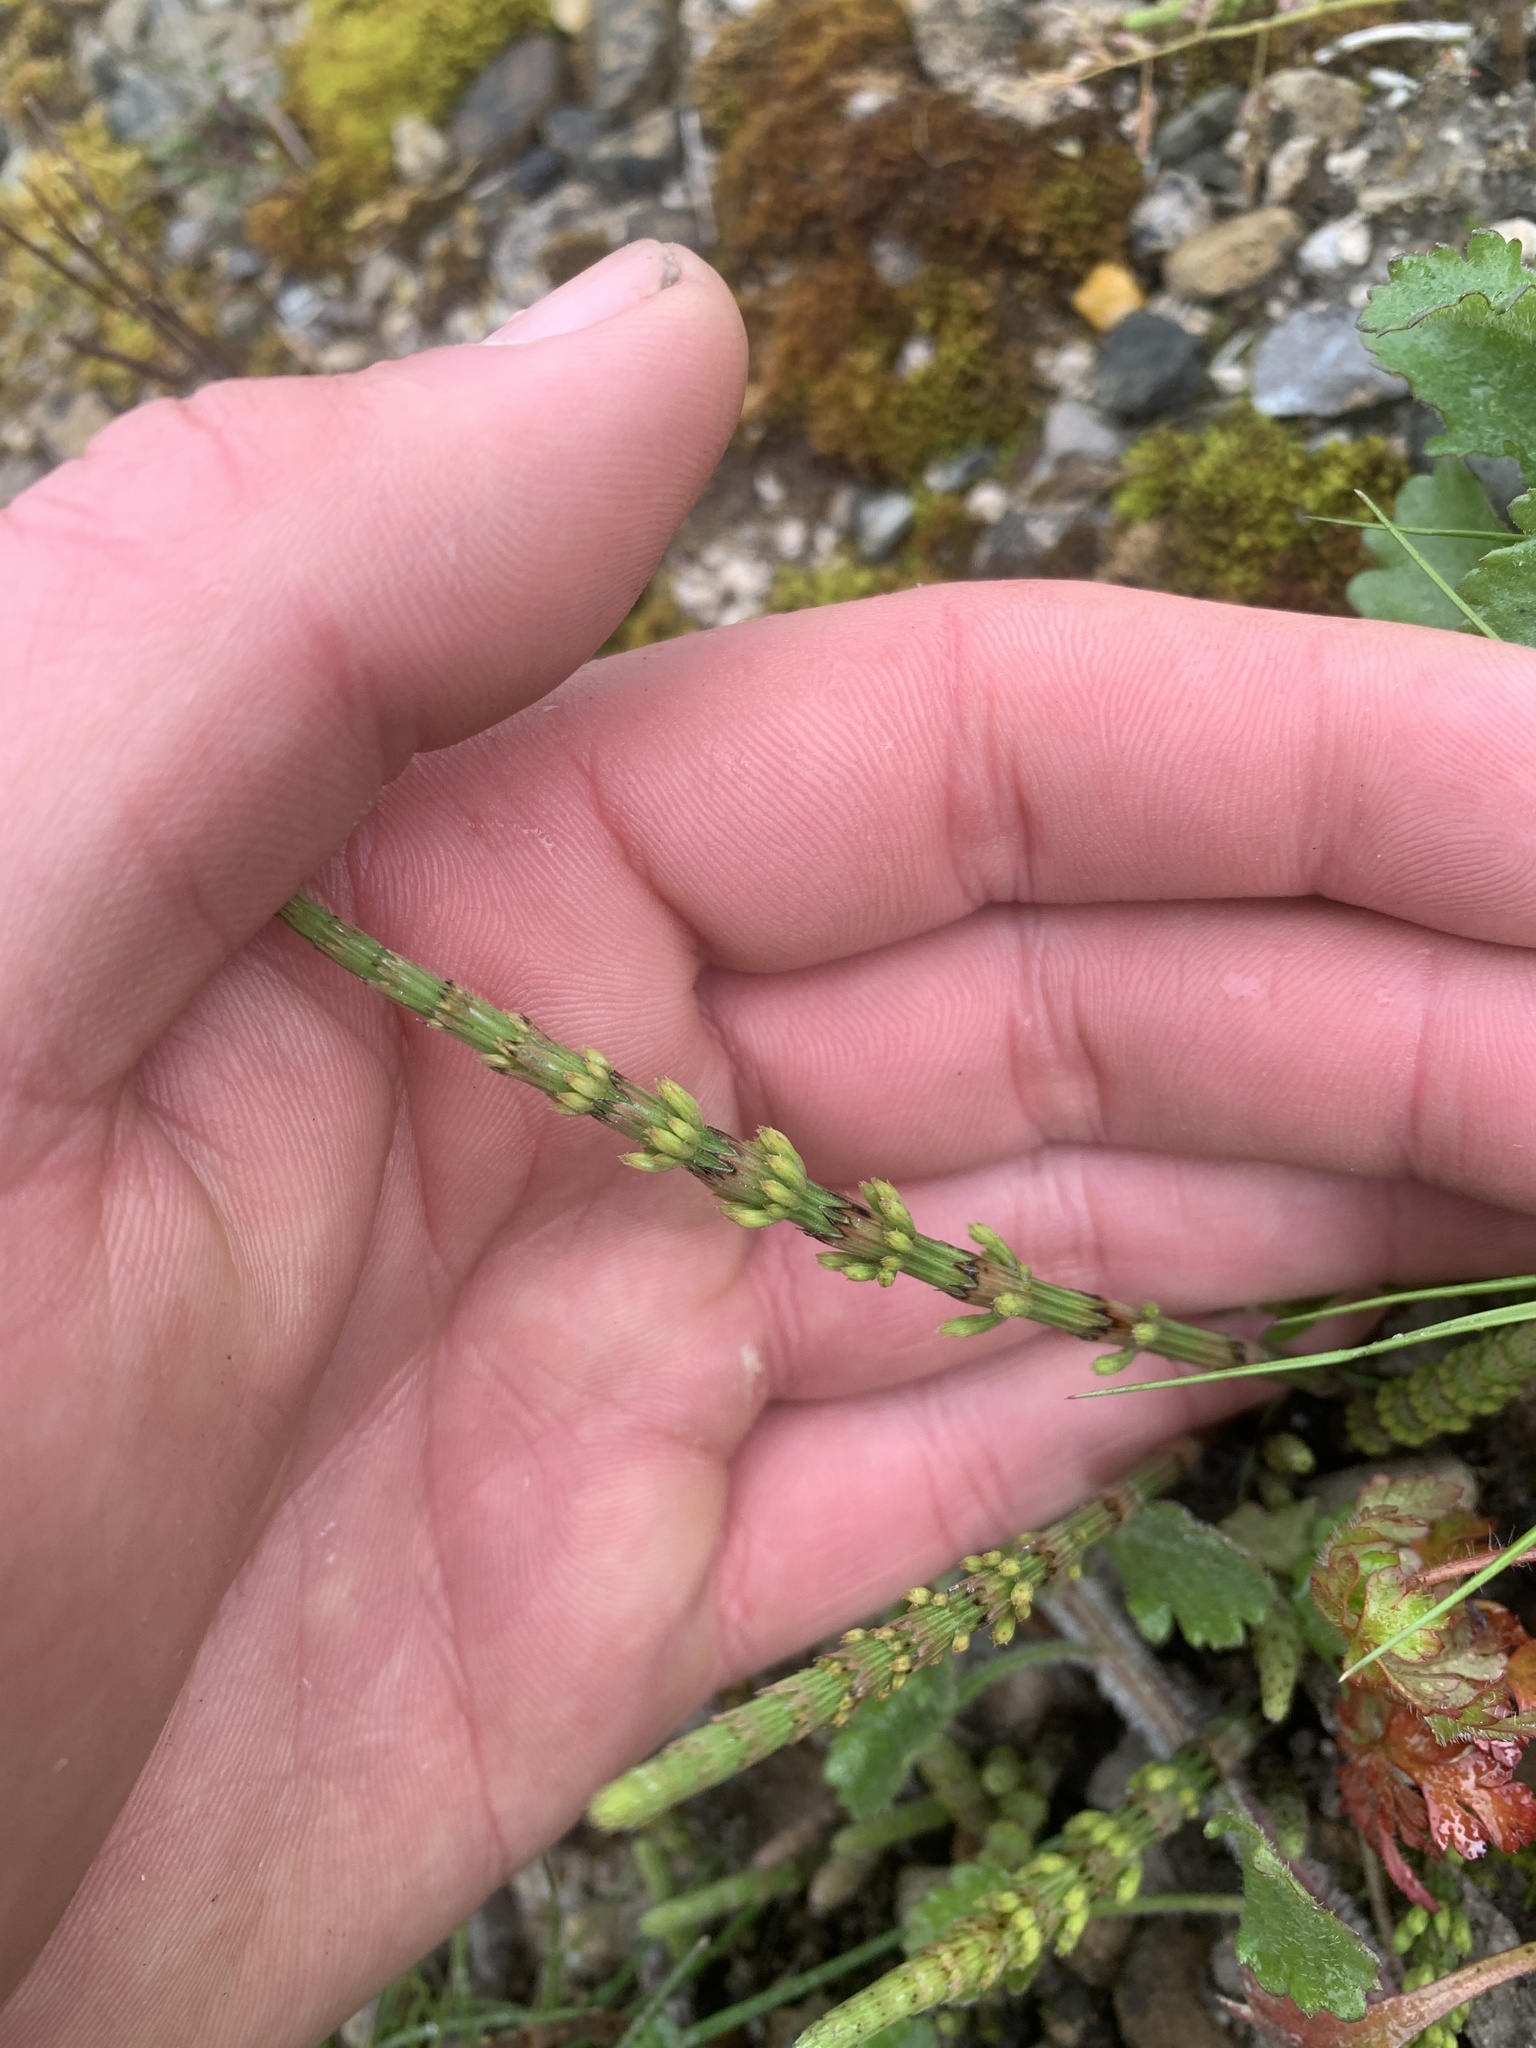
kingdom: Plantae
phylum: Tracheophyta
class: Polypodiopsida
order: Equisetales
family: Equisetaceae
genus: Equisetum
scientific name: Equisetum arvense
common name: Field horsetail
